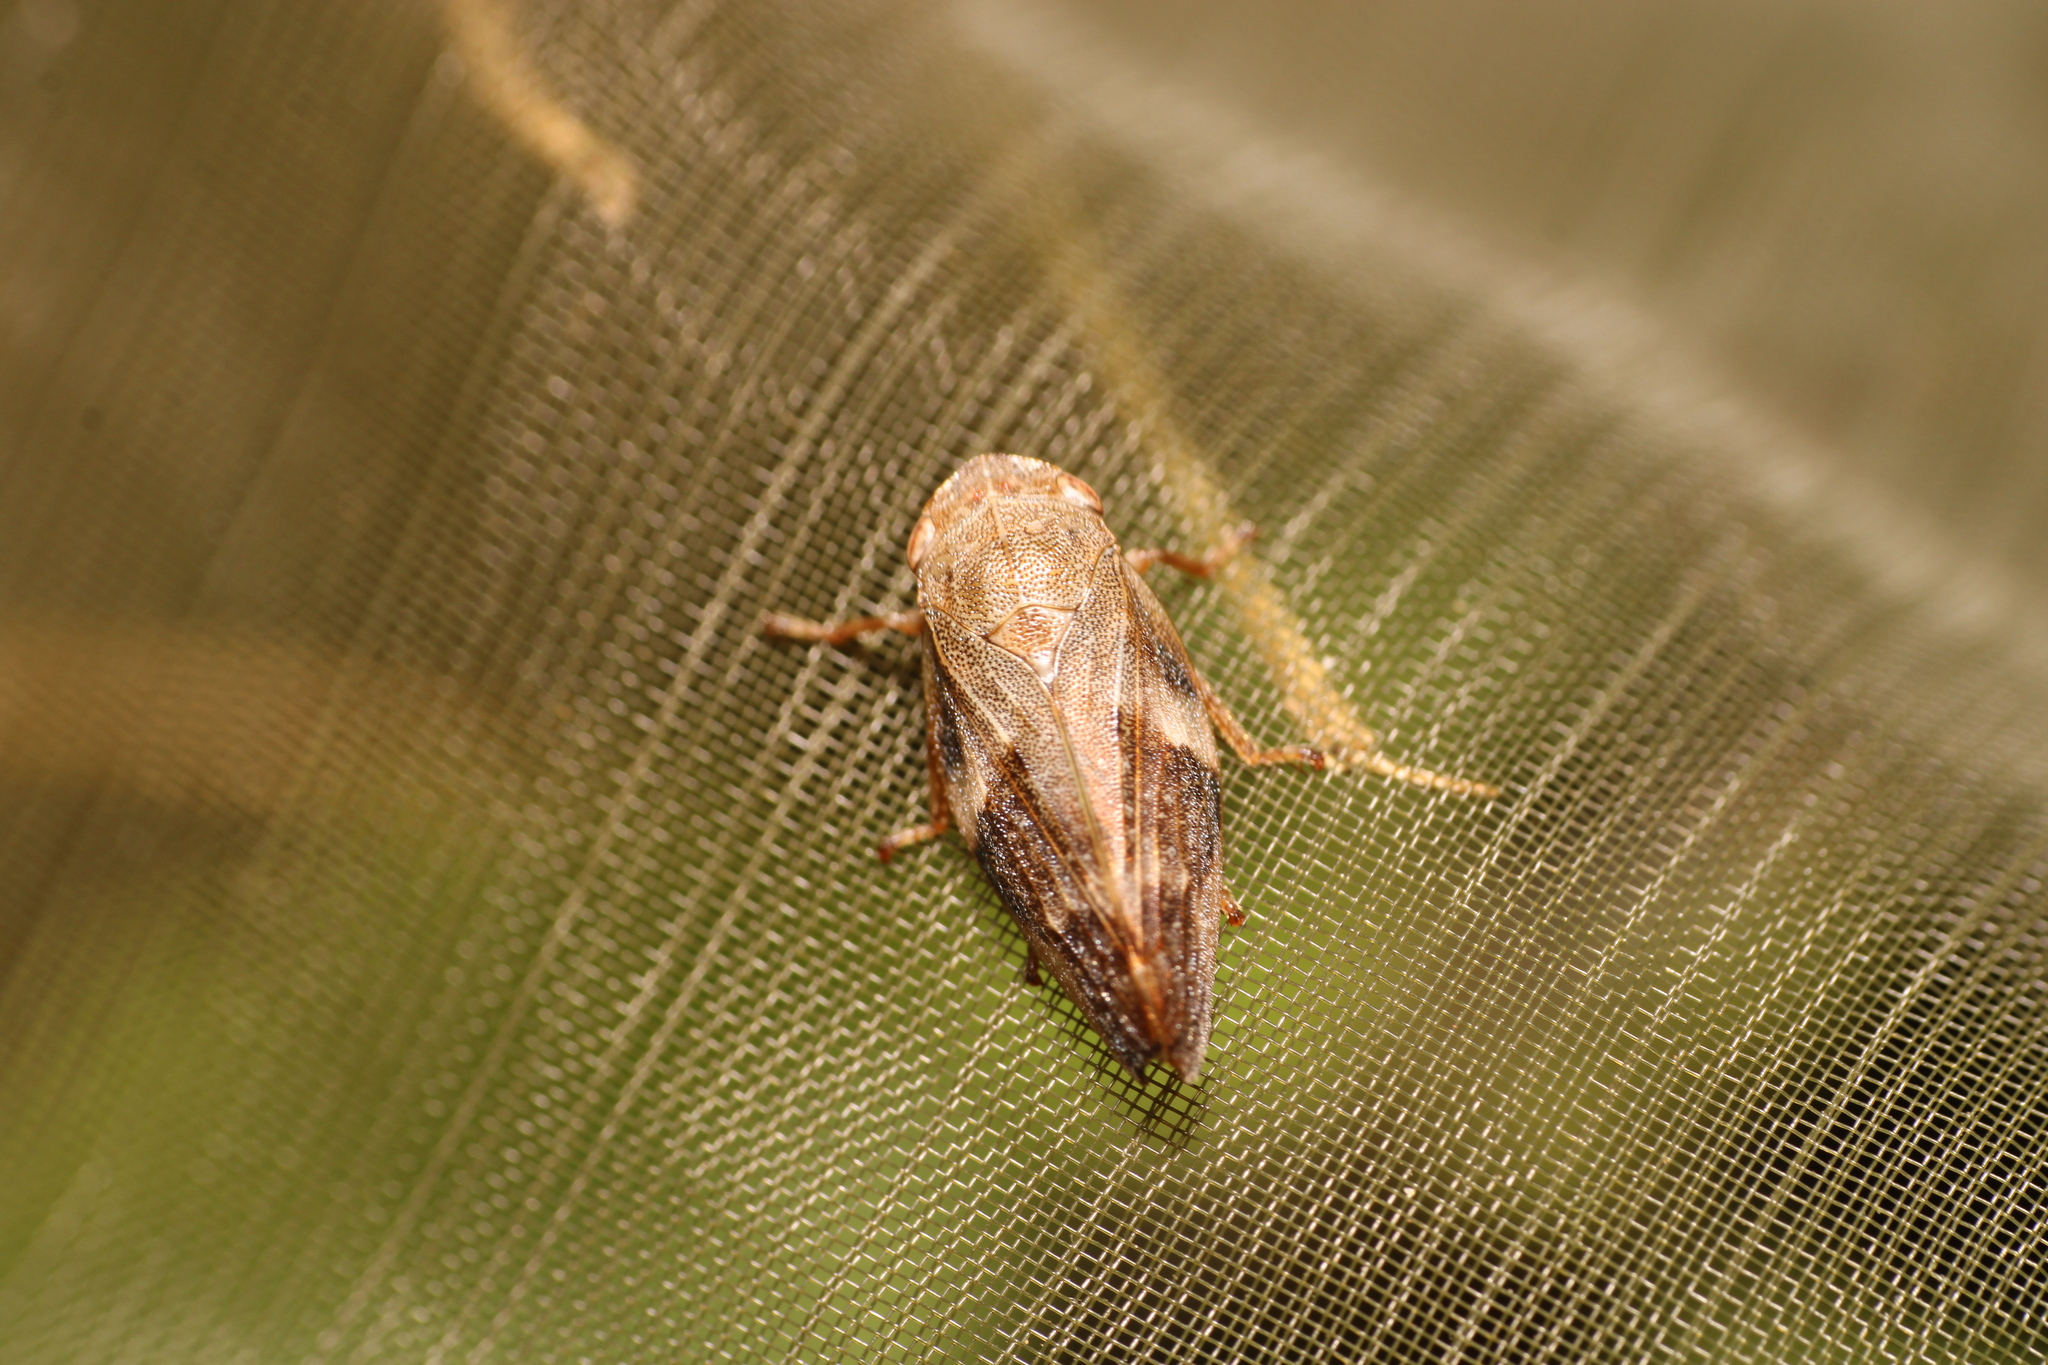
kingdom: Animalia
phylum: Arthropoda
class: Insecta
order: Hemiptera
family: Aphrophoridae
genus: Aphrophora
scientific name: Aphrophora alni
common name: European alder spittlebug
